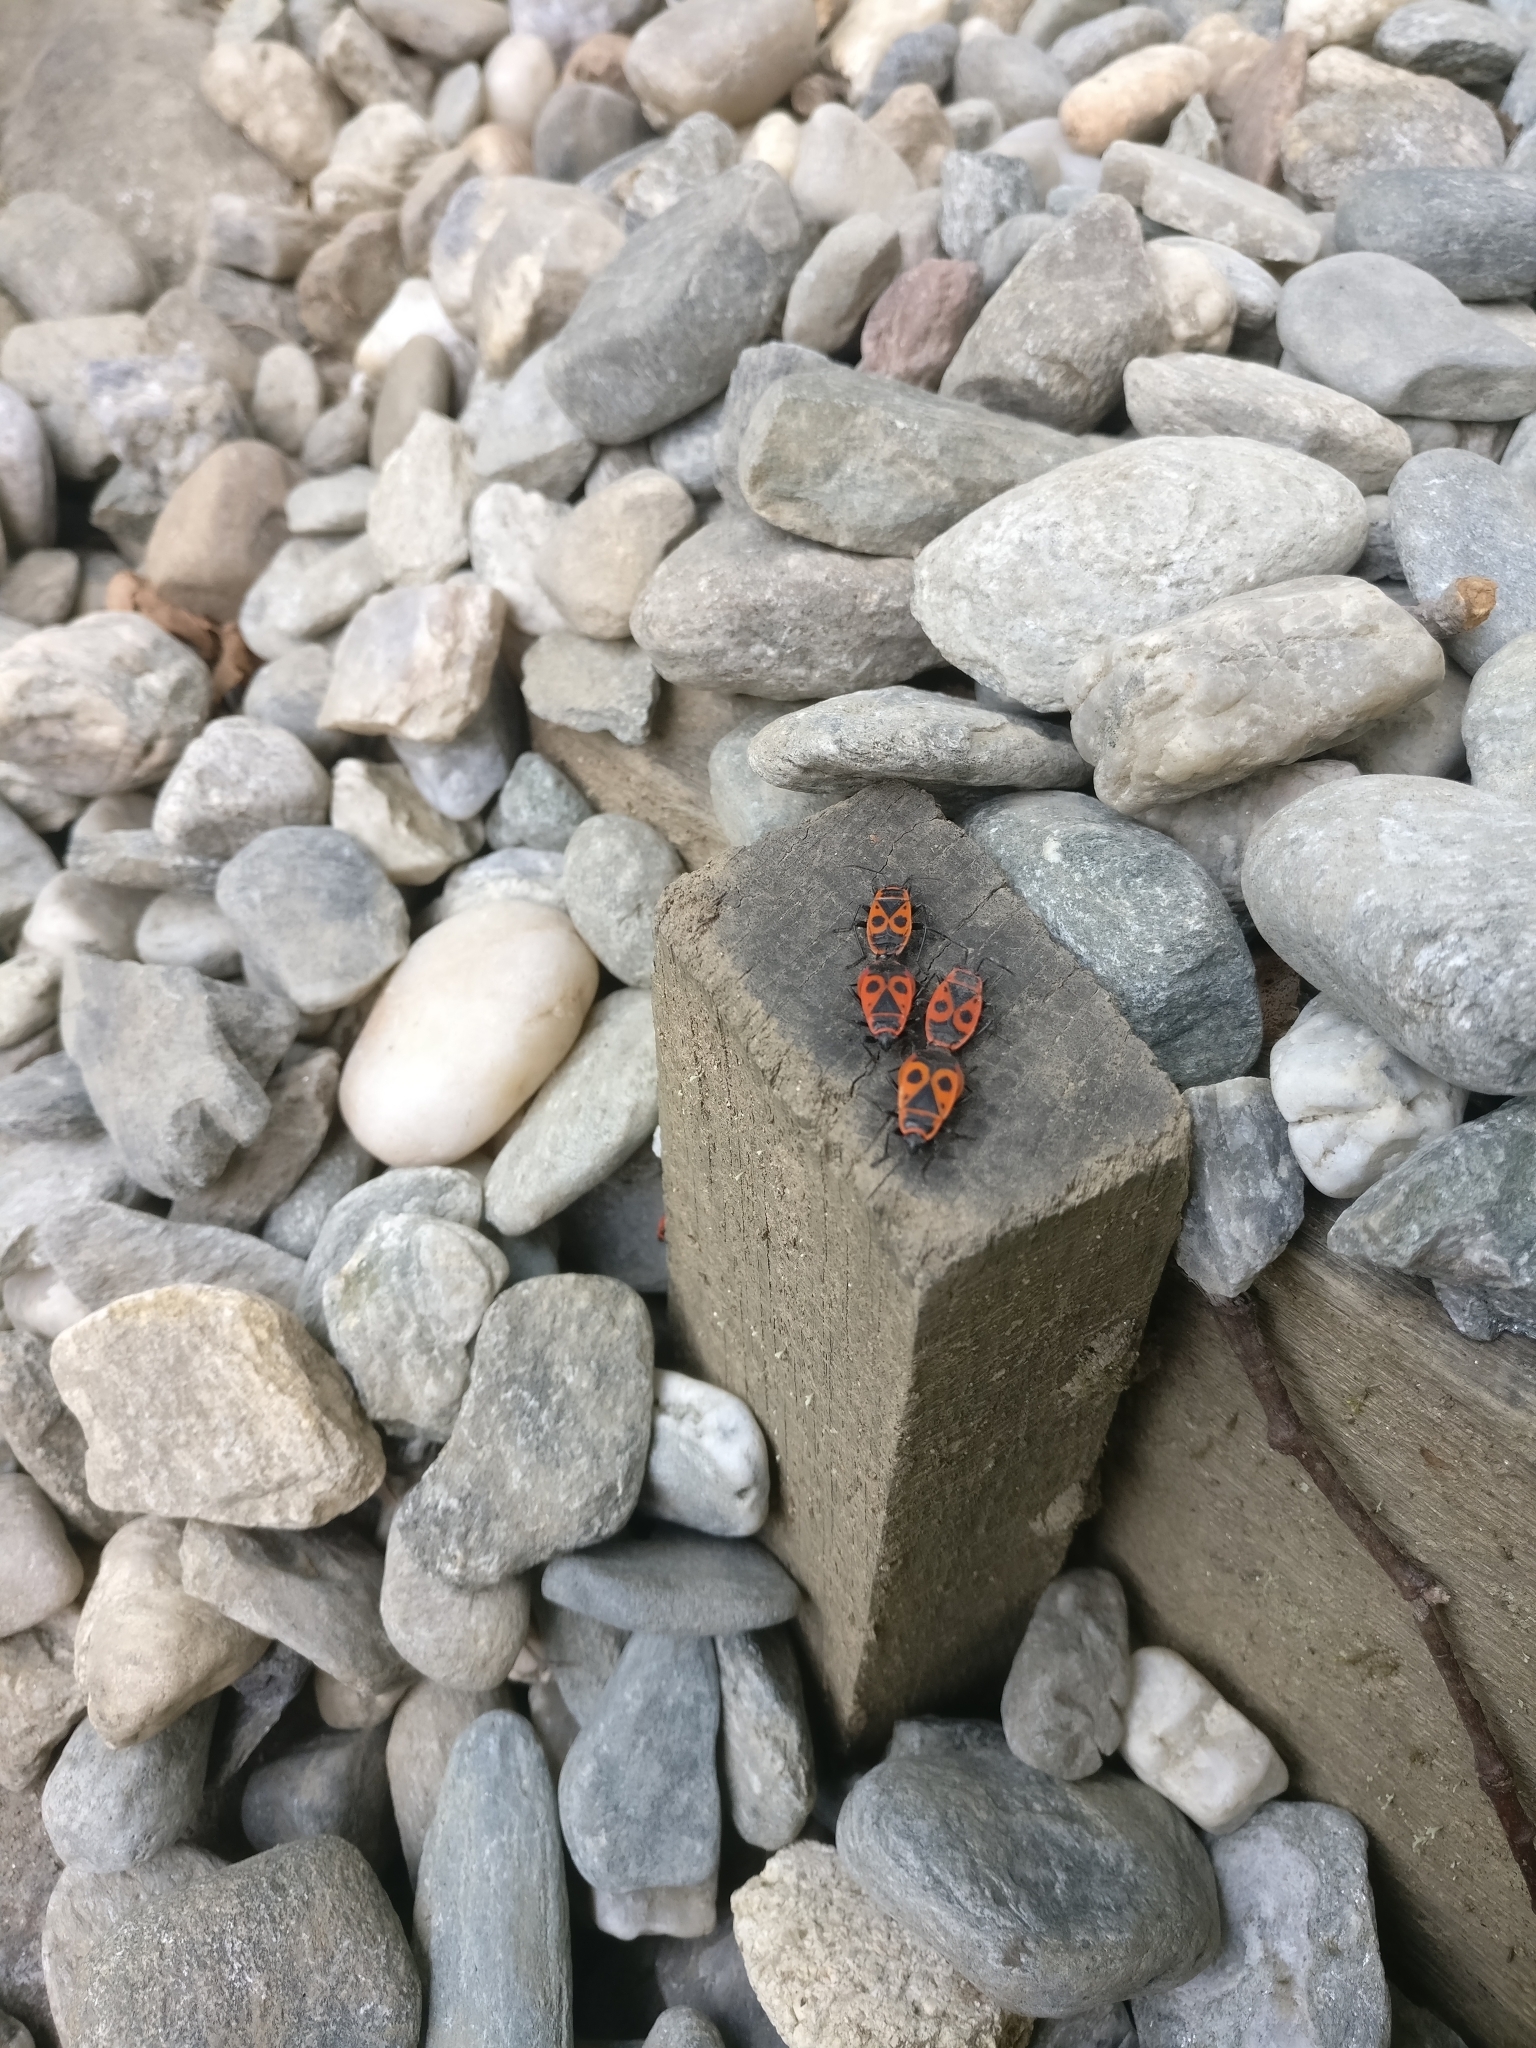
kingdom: Animalia
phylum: Arthropoda
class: Insecta
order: Hemiptera
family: Pyrrhocoridae
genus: Pyrrhocoris
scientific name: Pyrrhocoris apterus
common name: Firebug
